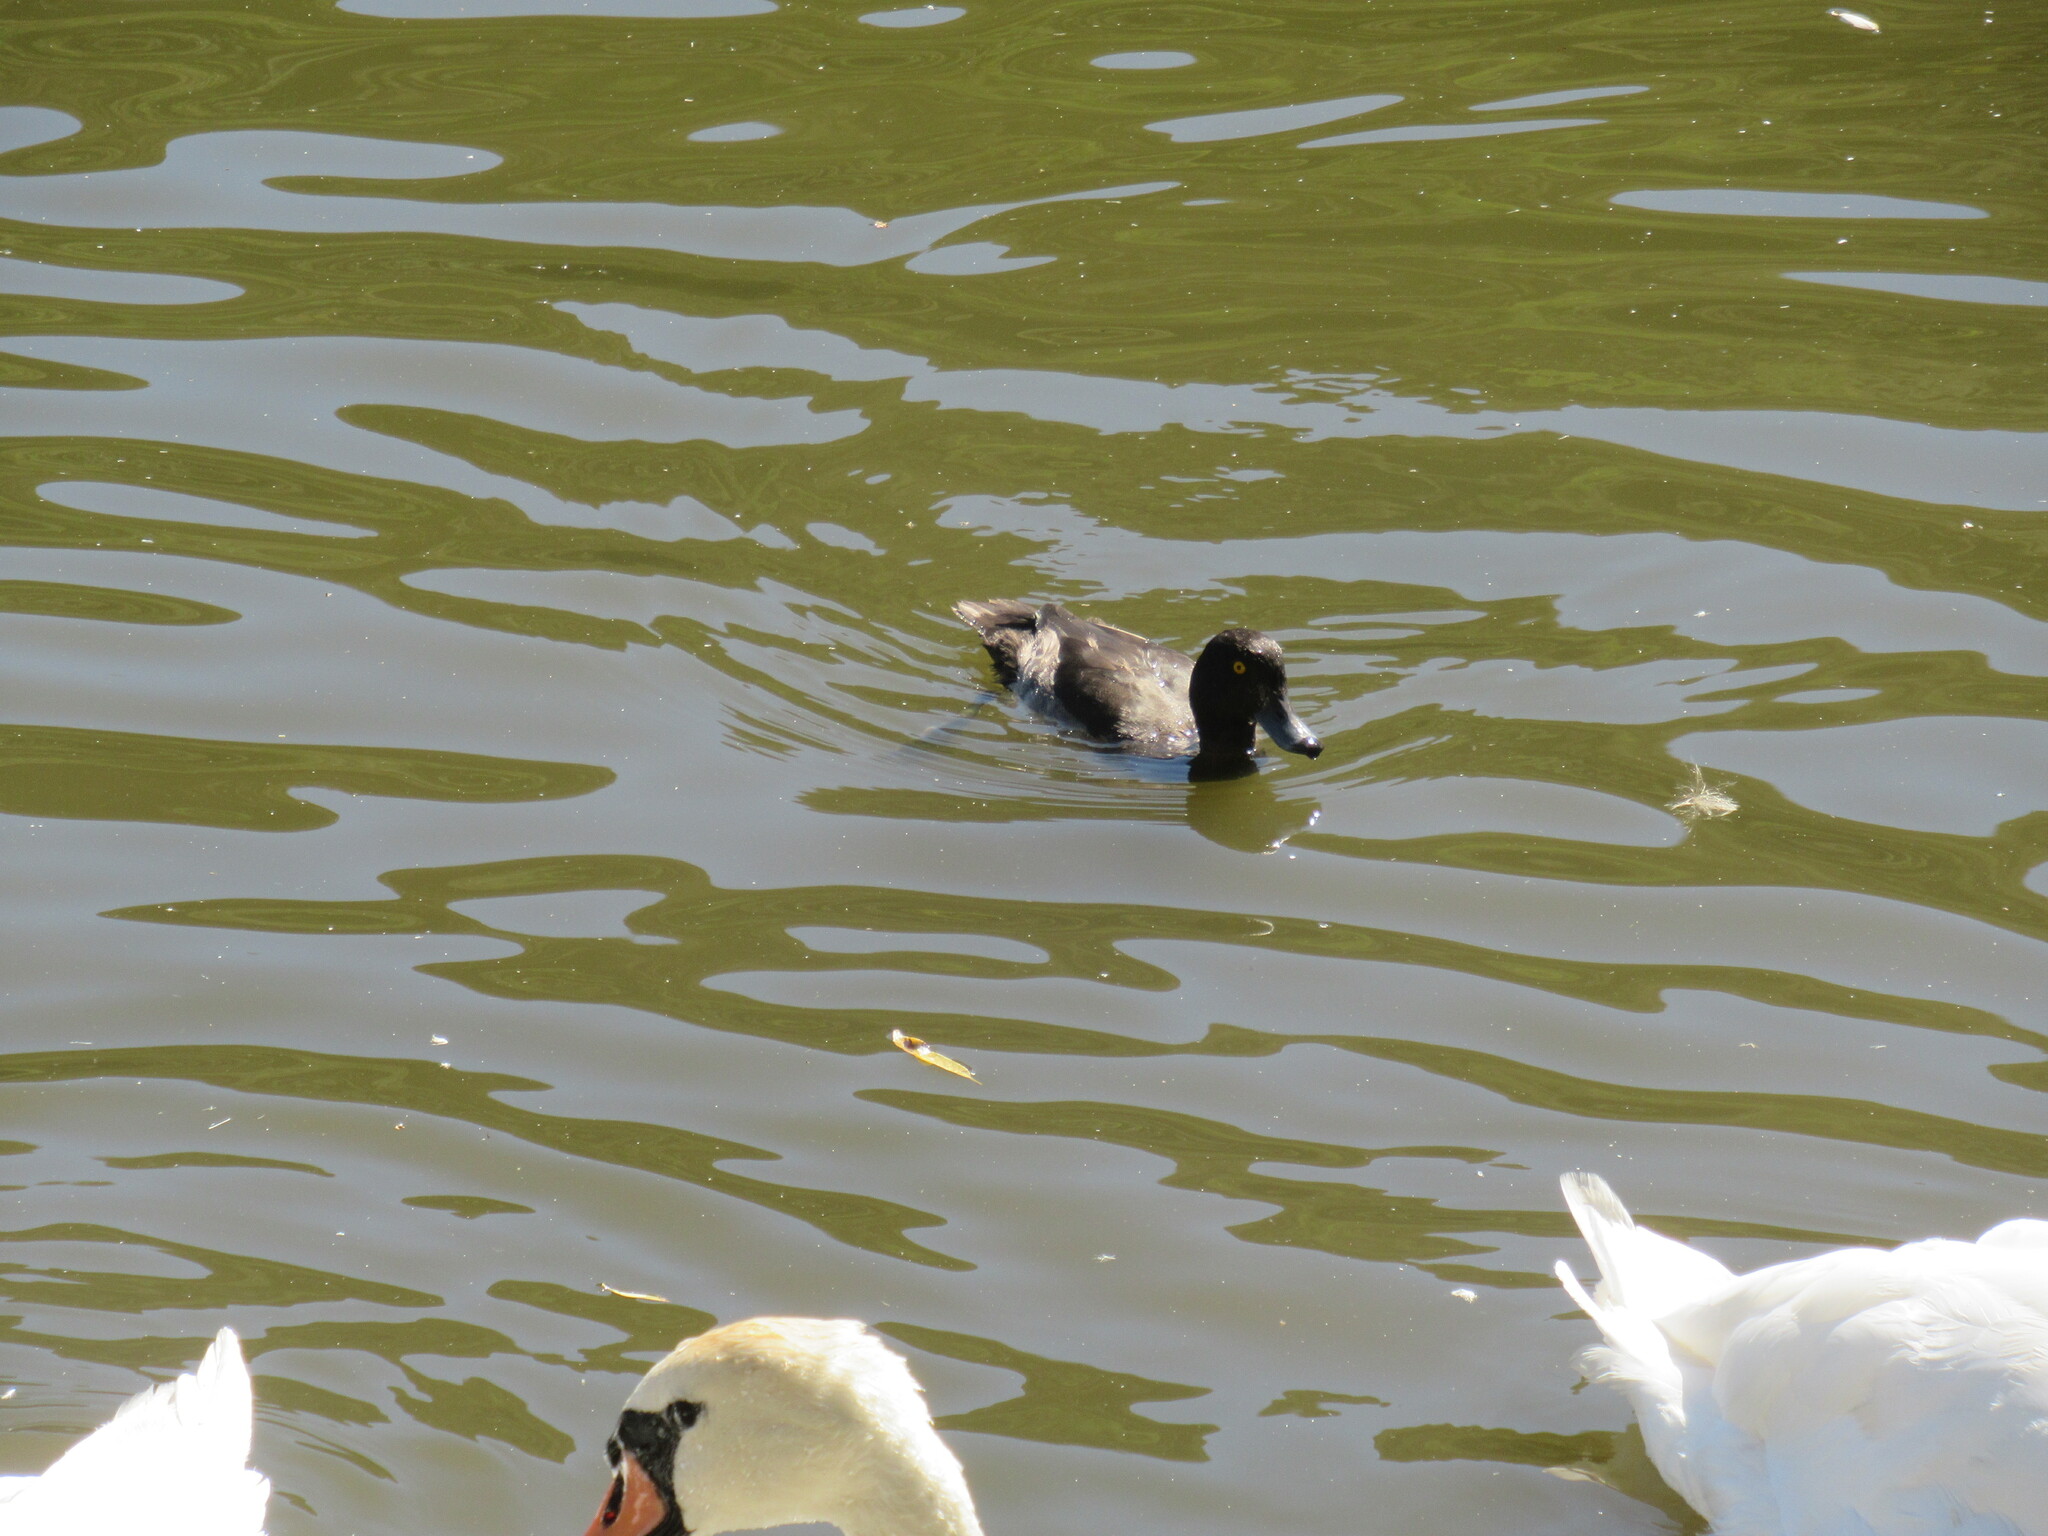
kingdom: Animalia
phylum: Chordata
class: Aves
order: Anseriformes
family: Anatidae
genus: Aythya
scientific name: Aythya fuligula
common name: Tufted duck
